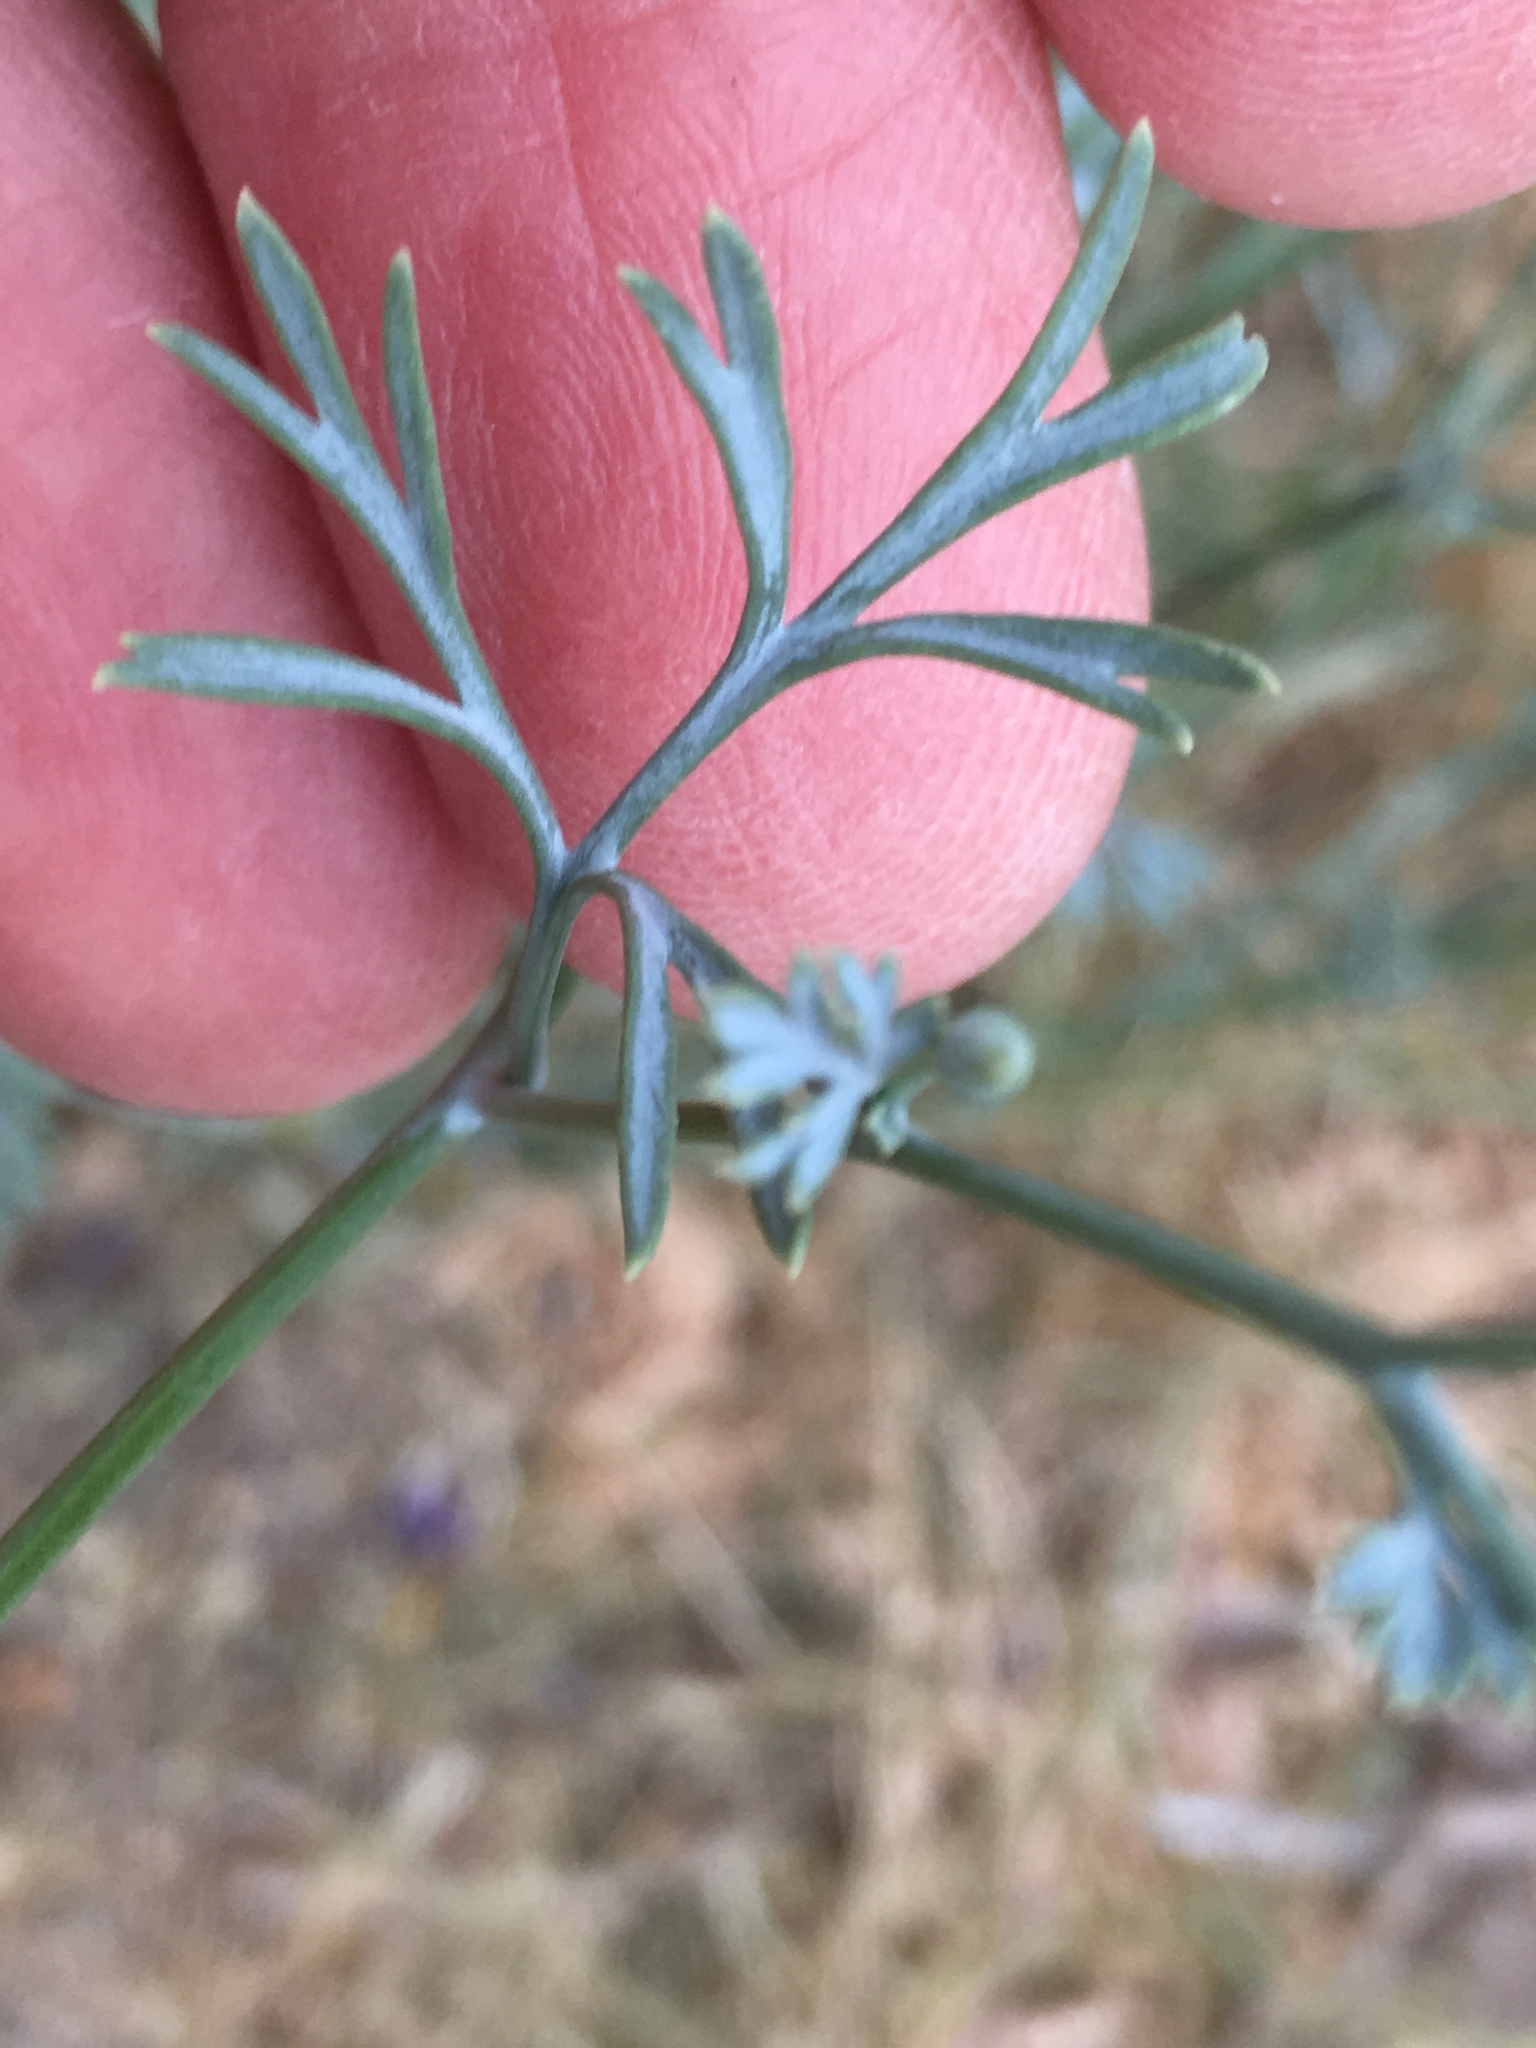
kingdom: Plantae
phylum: Tracheophyta
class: Magnoliopsida
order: Ranunculales
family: Papaveraceae
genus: Eschscholzia
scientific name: Eschscholzia minutiflora
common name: Small-flower california-poppy
